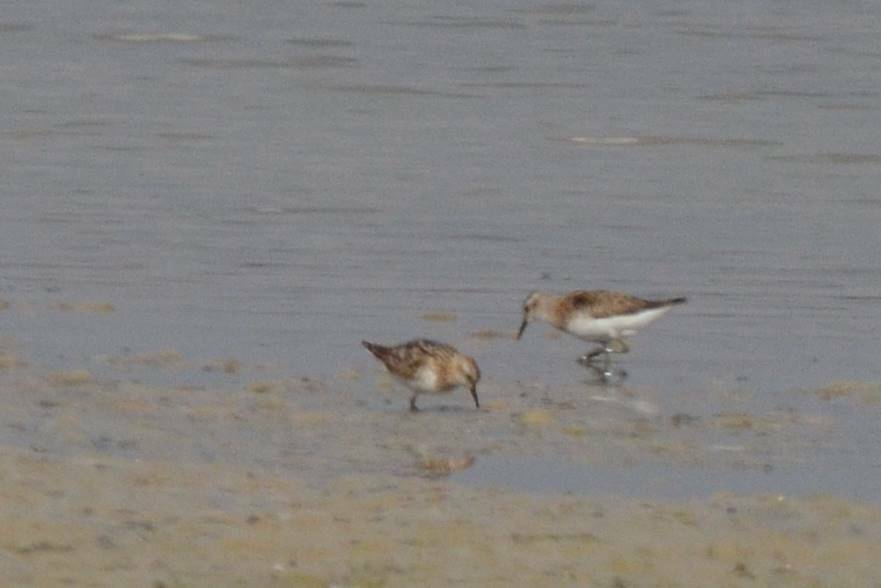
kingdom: Animalia
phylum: Chordata
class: Aves
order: Charadriiformes
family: Scolopacidae
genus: Calidris
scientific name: Calidris minuta
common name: Little stint
